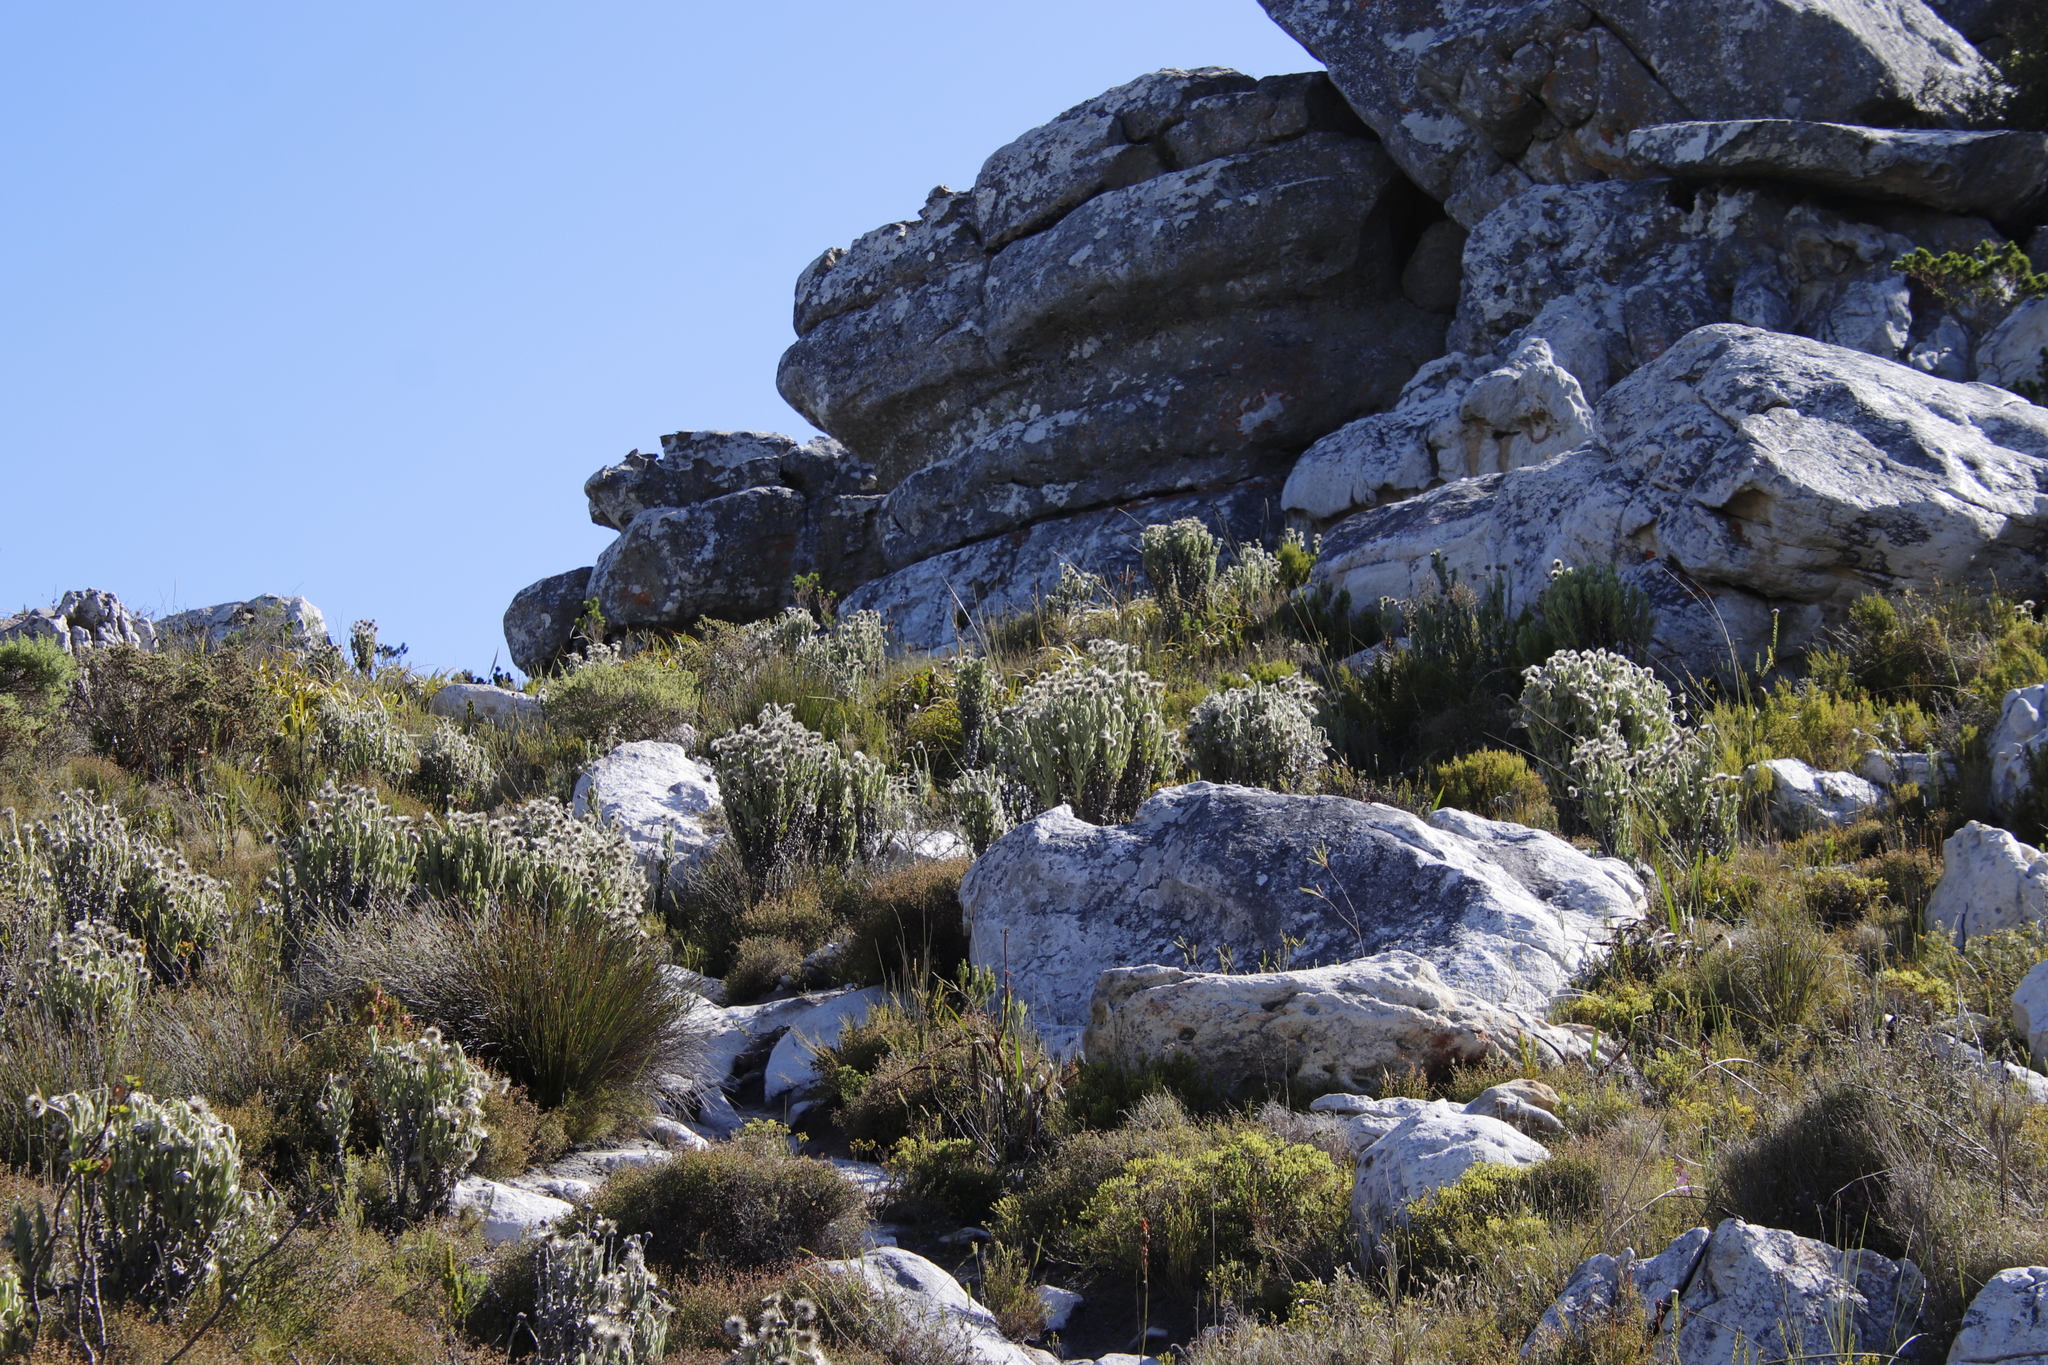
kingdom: Plantae
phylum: Tracheophyta
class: Magnoliopsida
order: Asterales
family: Asteraceae
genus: Syncarpha
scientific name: Syncarpha vestita
